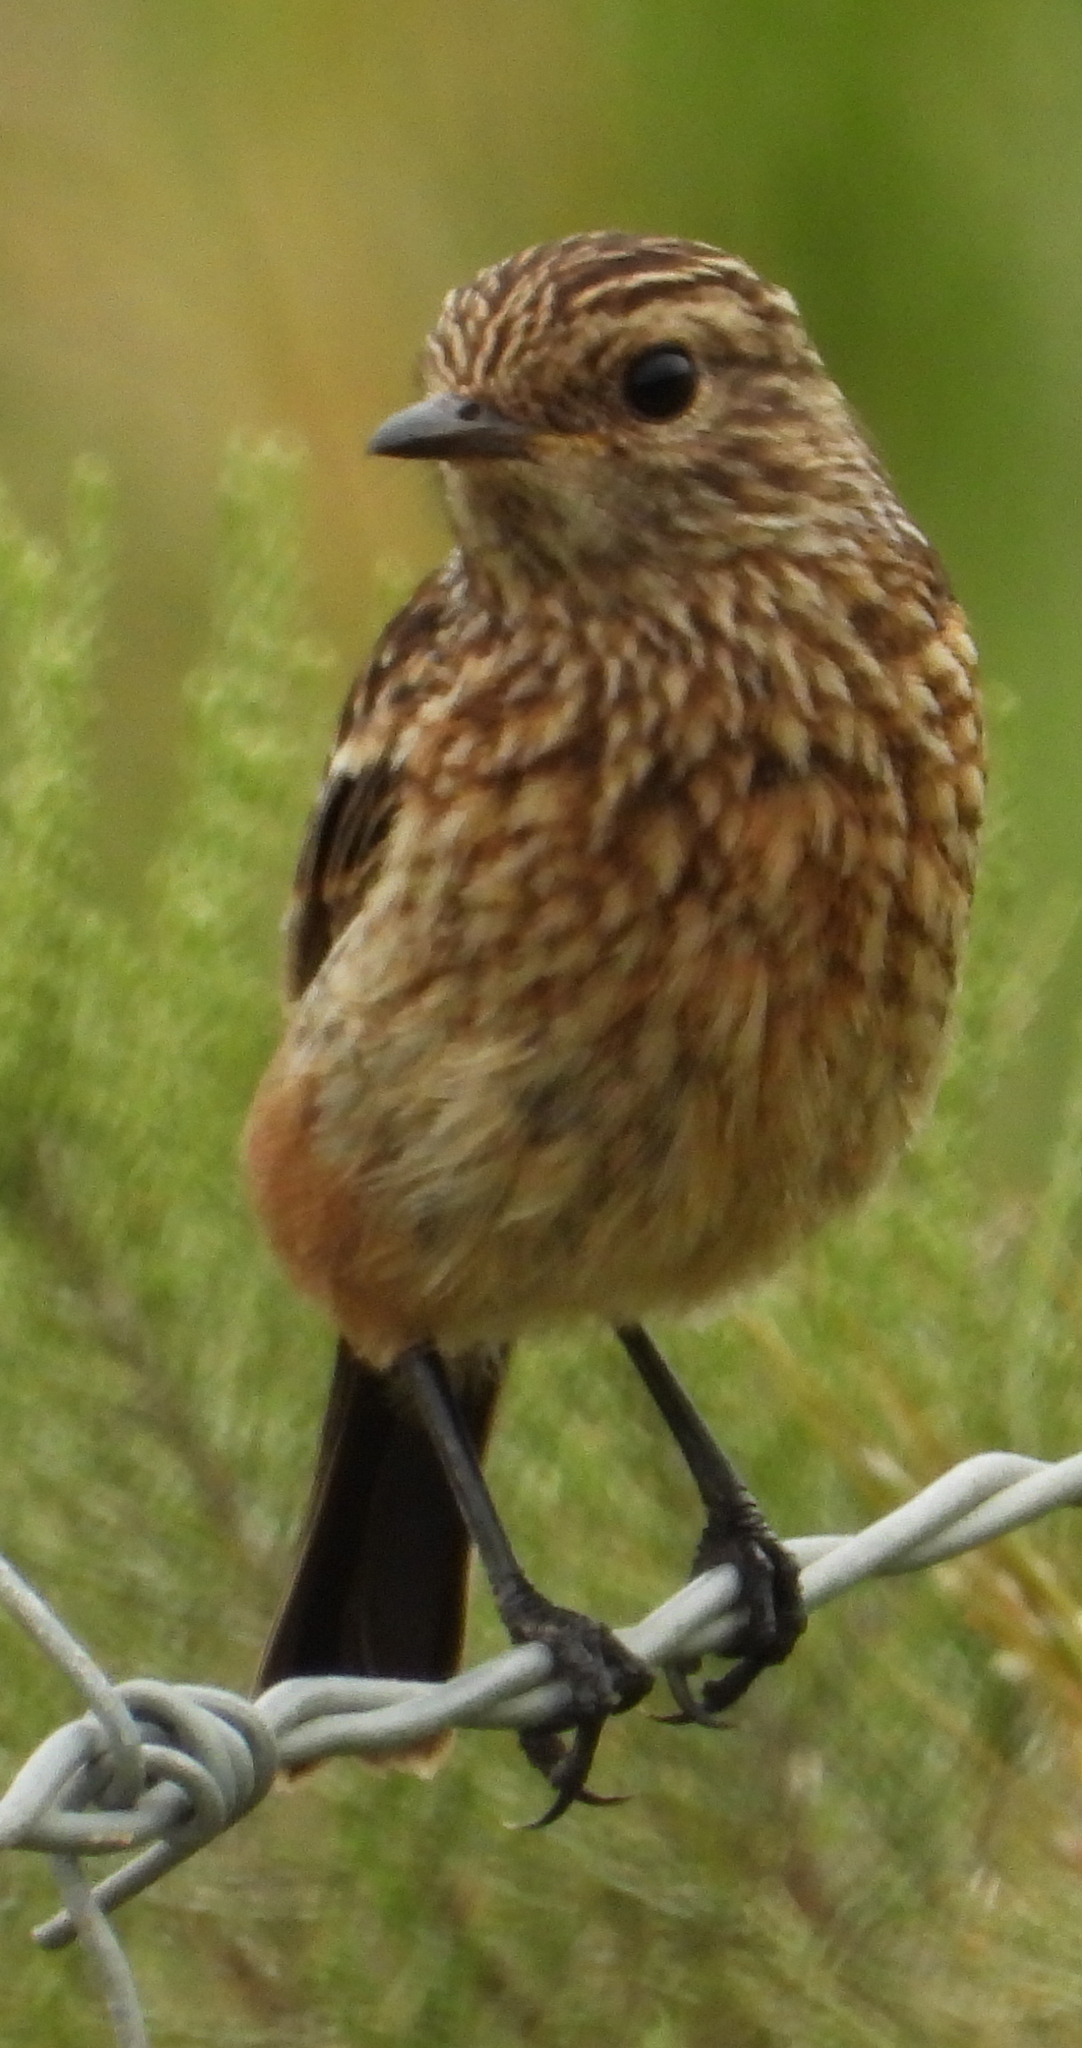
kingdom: Animalia
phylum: Chordata
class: Aves
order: Passeriformes
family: Muscicapidae
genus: Saxicola
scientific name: Saxicola torquatus
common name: African stonechat
